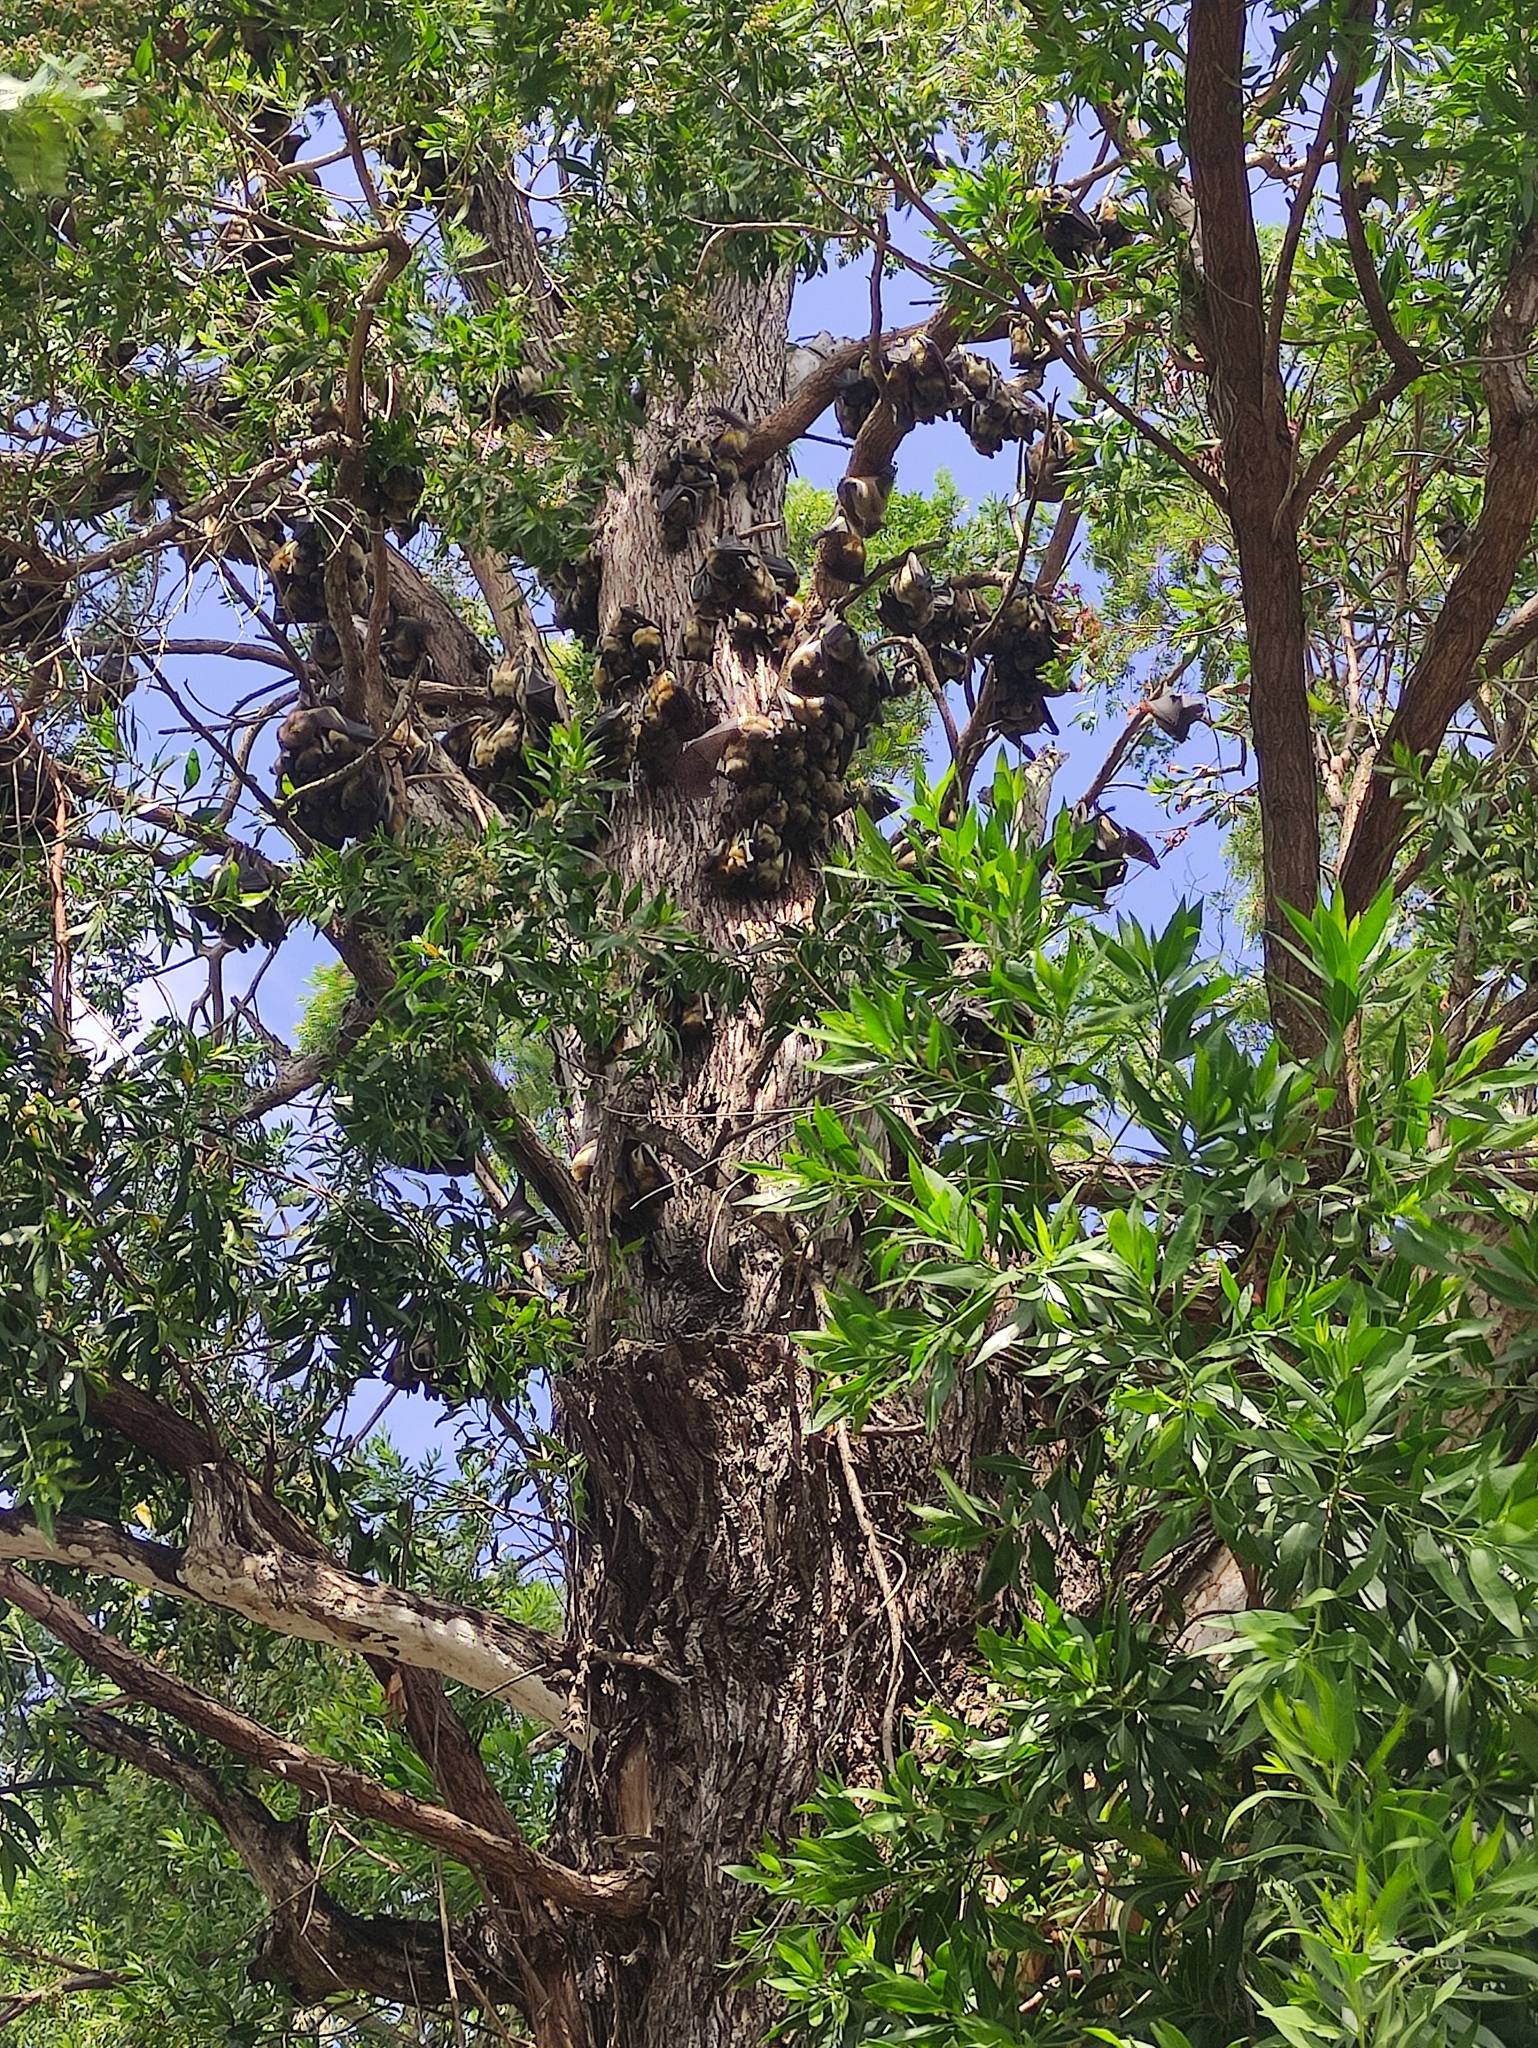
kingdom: Animalia
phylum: Chordata
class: Mammalia
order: Chiroptera
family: Pteropodidae
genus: Eidolon
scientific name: Eidolon helvum
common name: Straw-colored fruit bat
